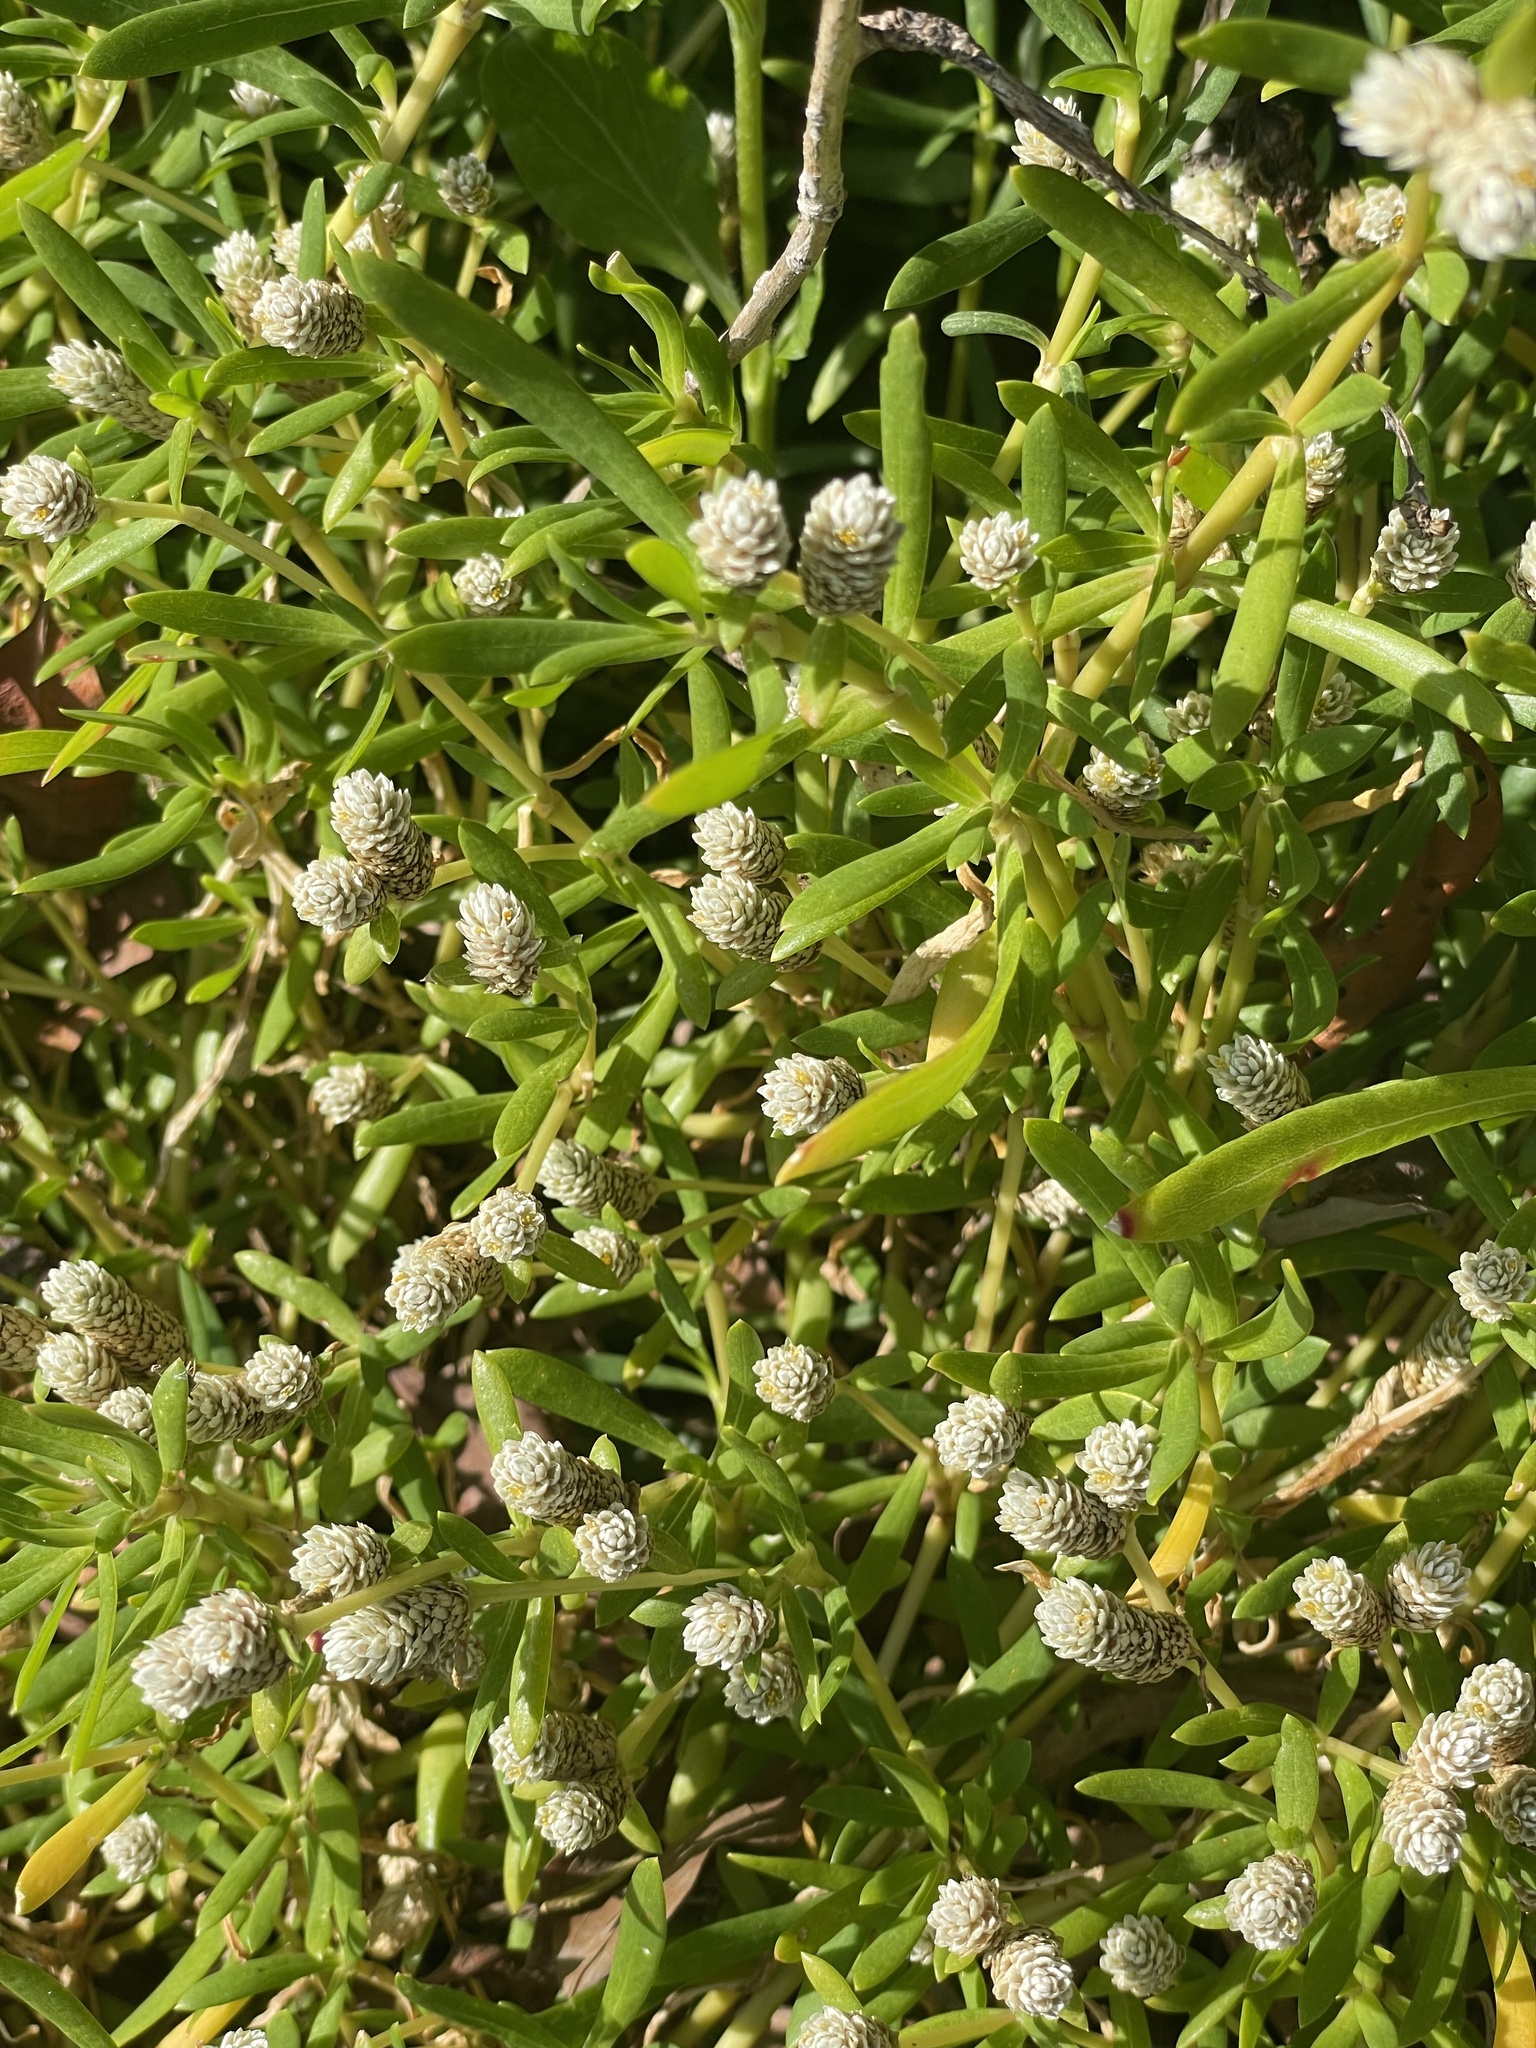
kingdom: Plantae
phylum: Tracheophyta
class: Magnoliopsida
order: Caryophyllales
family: Amaranthaceae
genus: Gomphrena
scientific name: Gomphrena vermicularis
